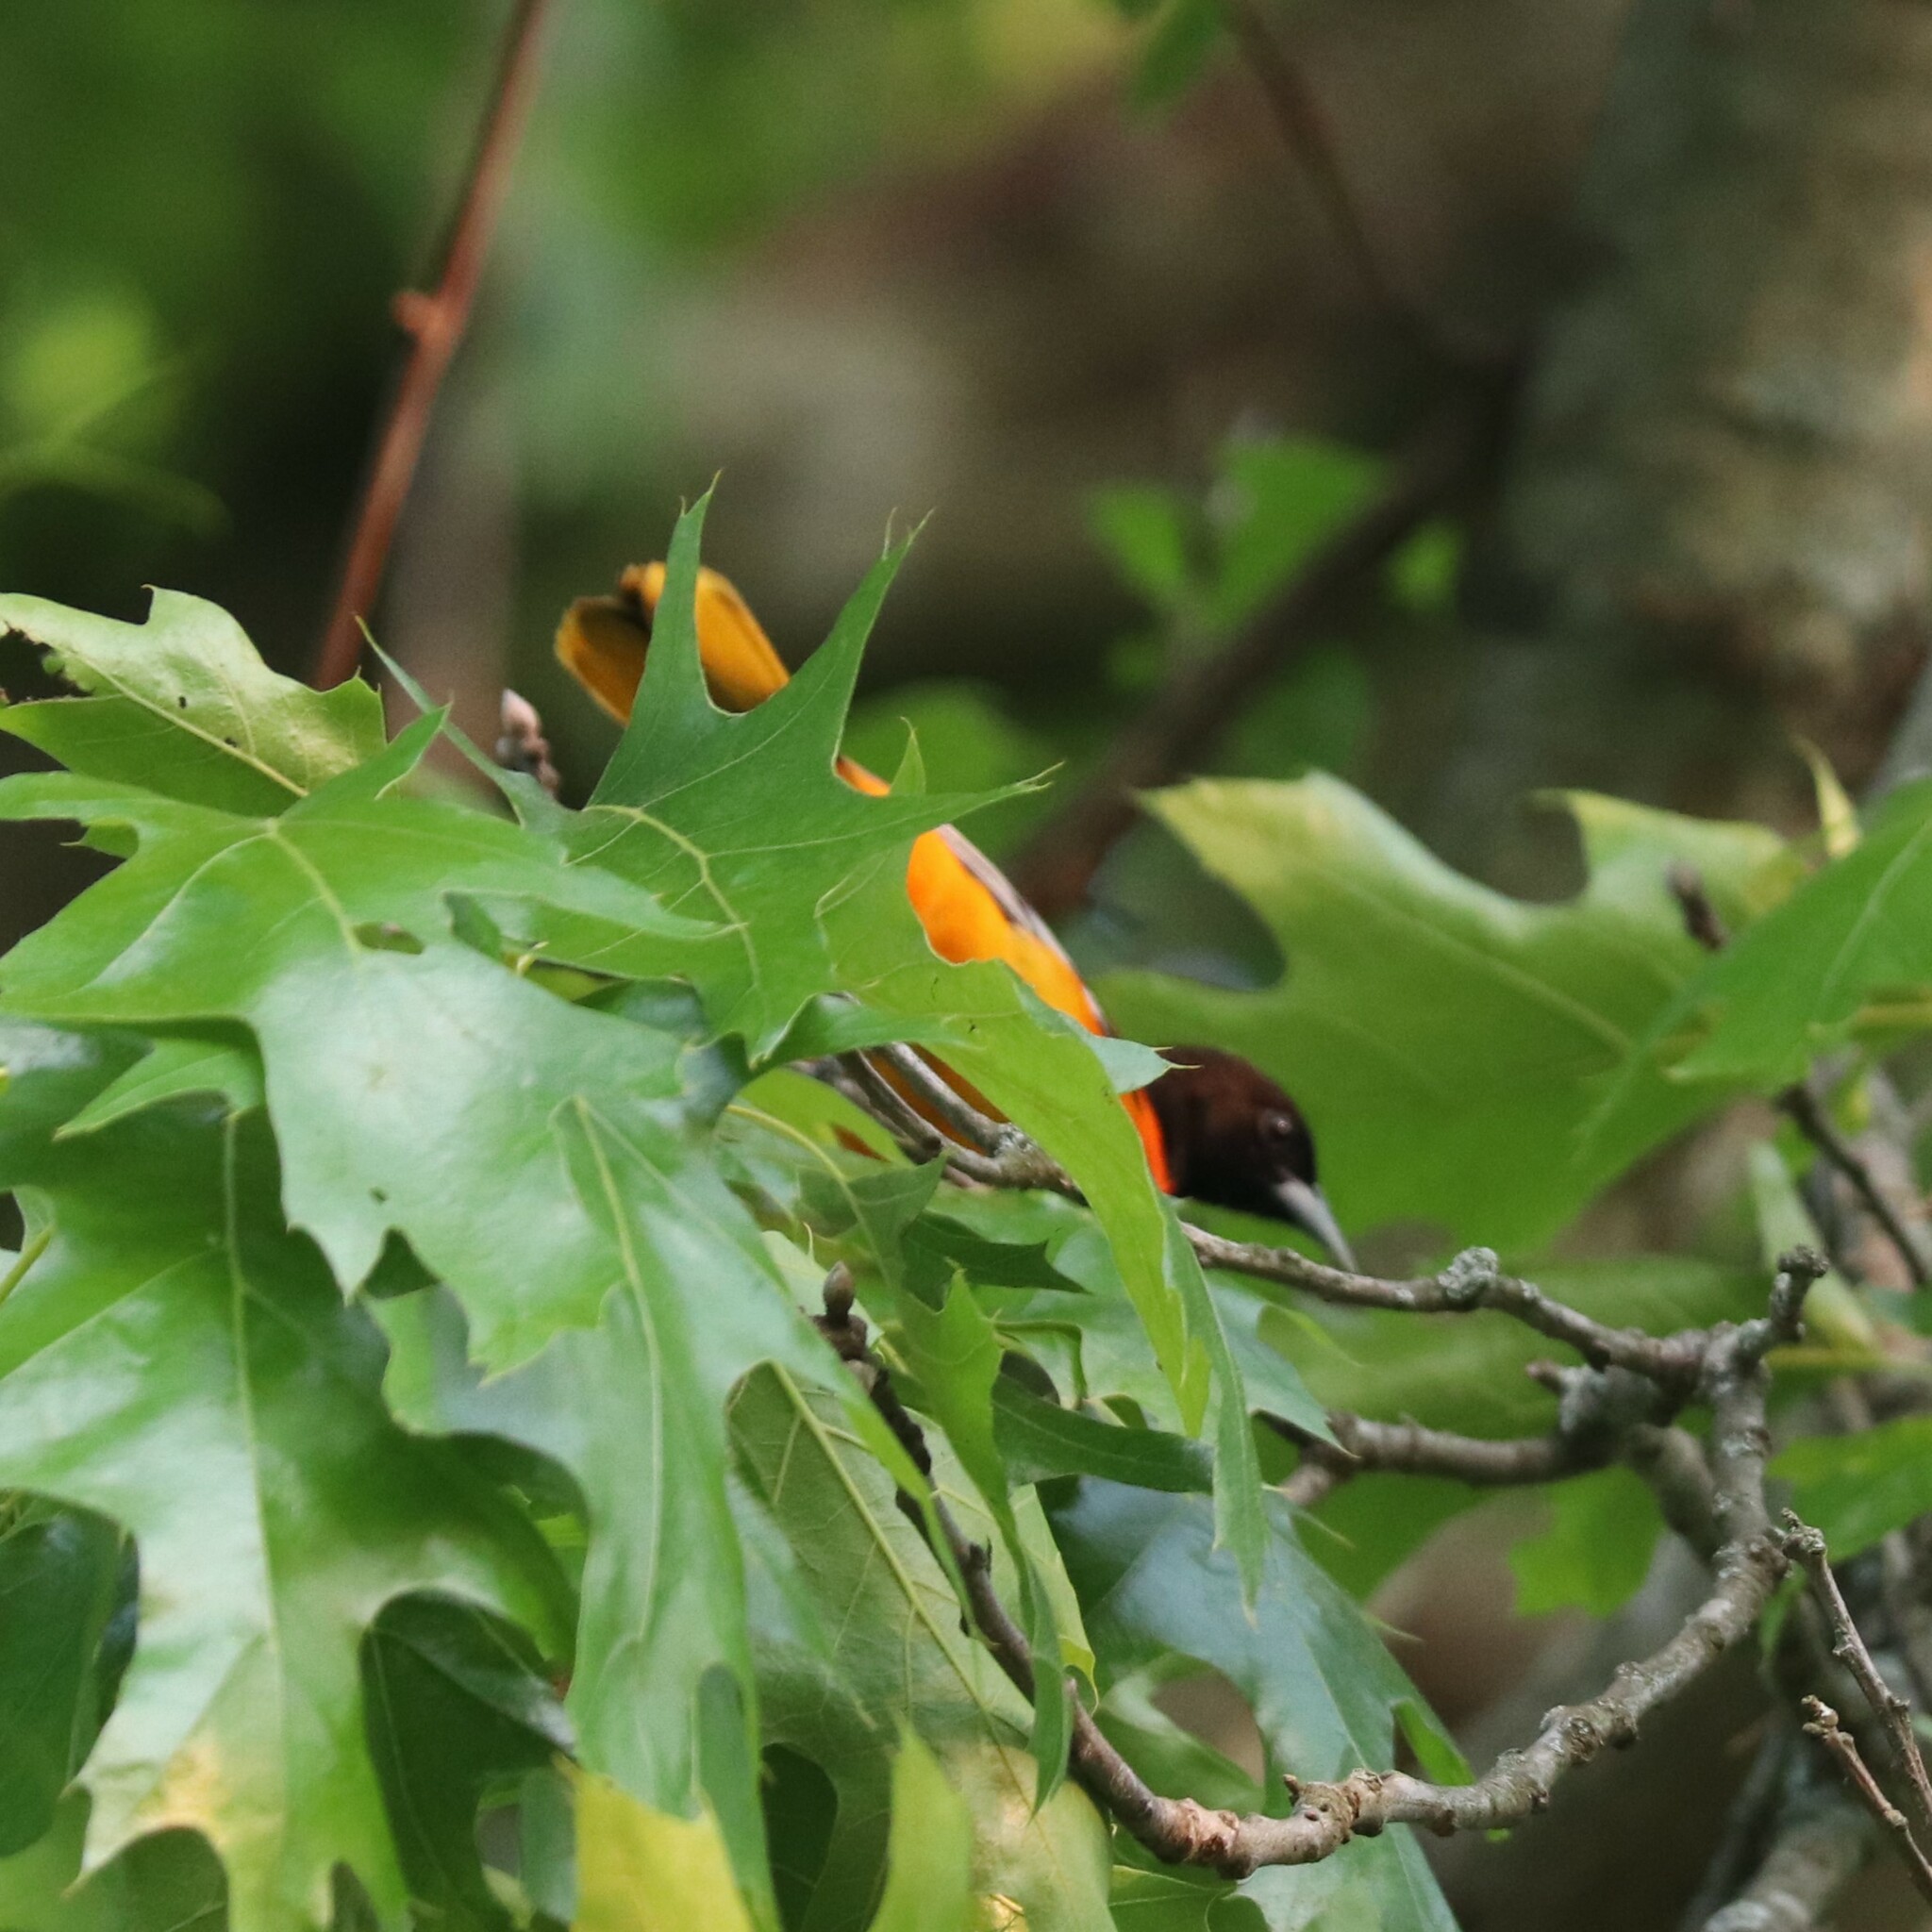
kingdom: Animalia
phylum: Chordata
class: Aves
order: Passeriformes
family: Icteridae
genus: Icterus
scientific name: Icterus galbula
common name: Baltimore oriole
